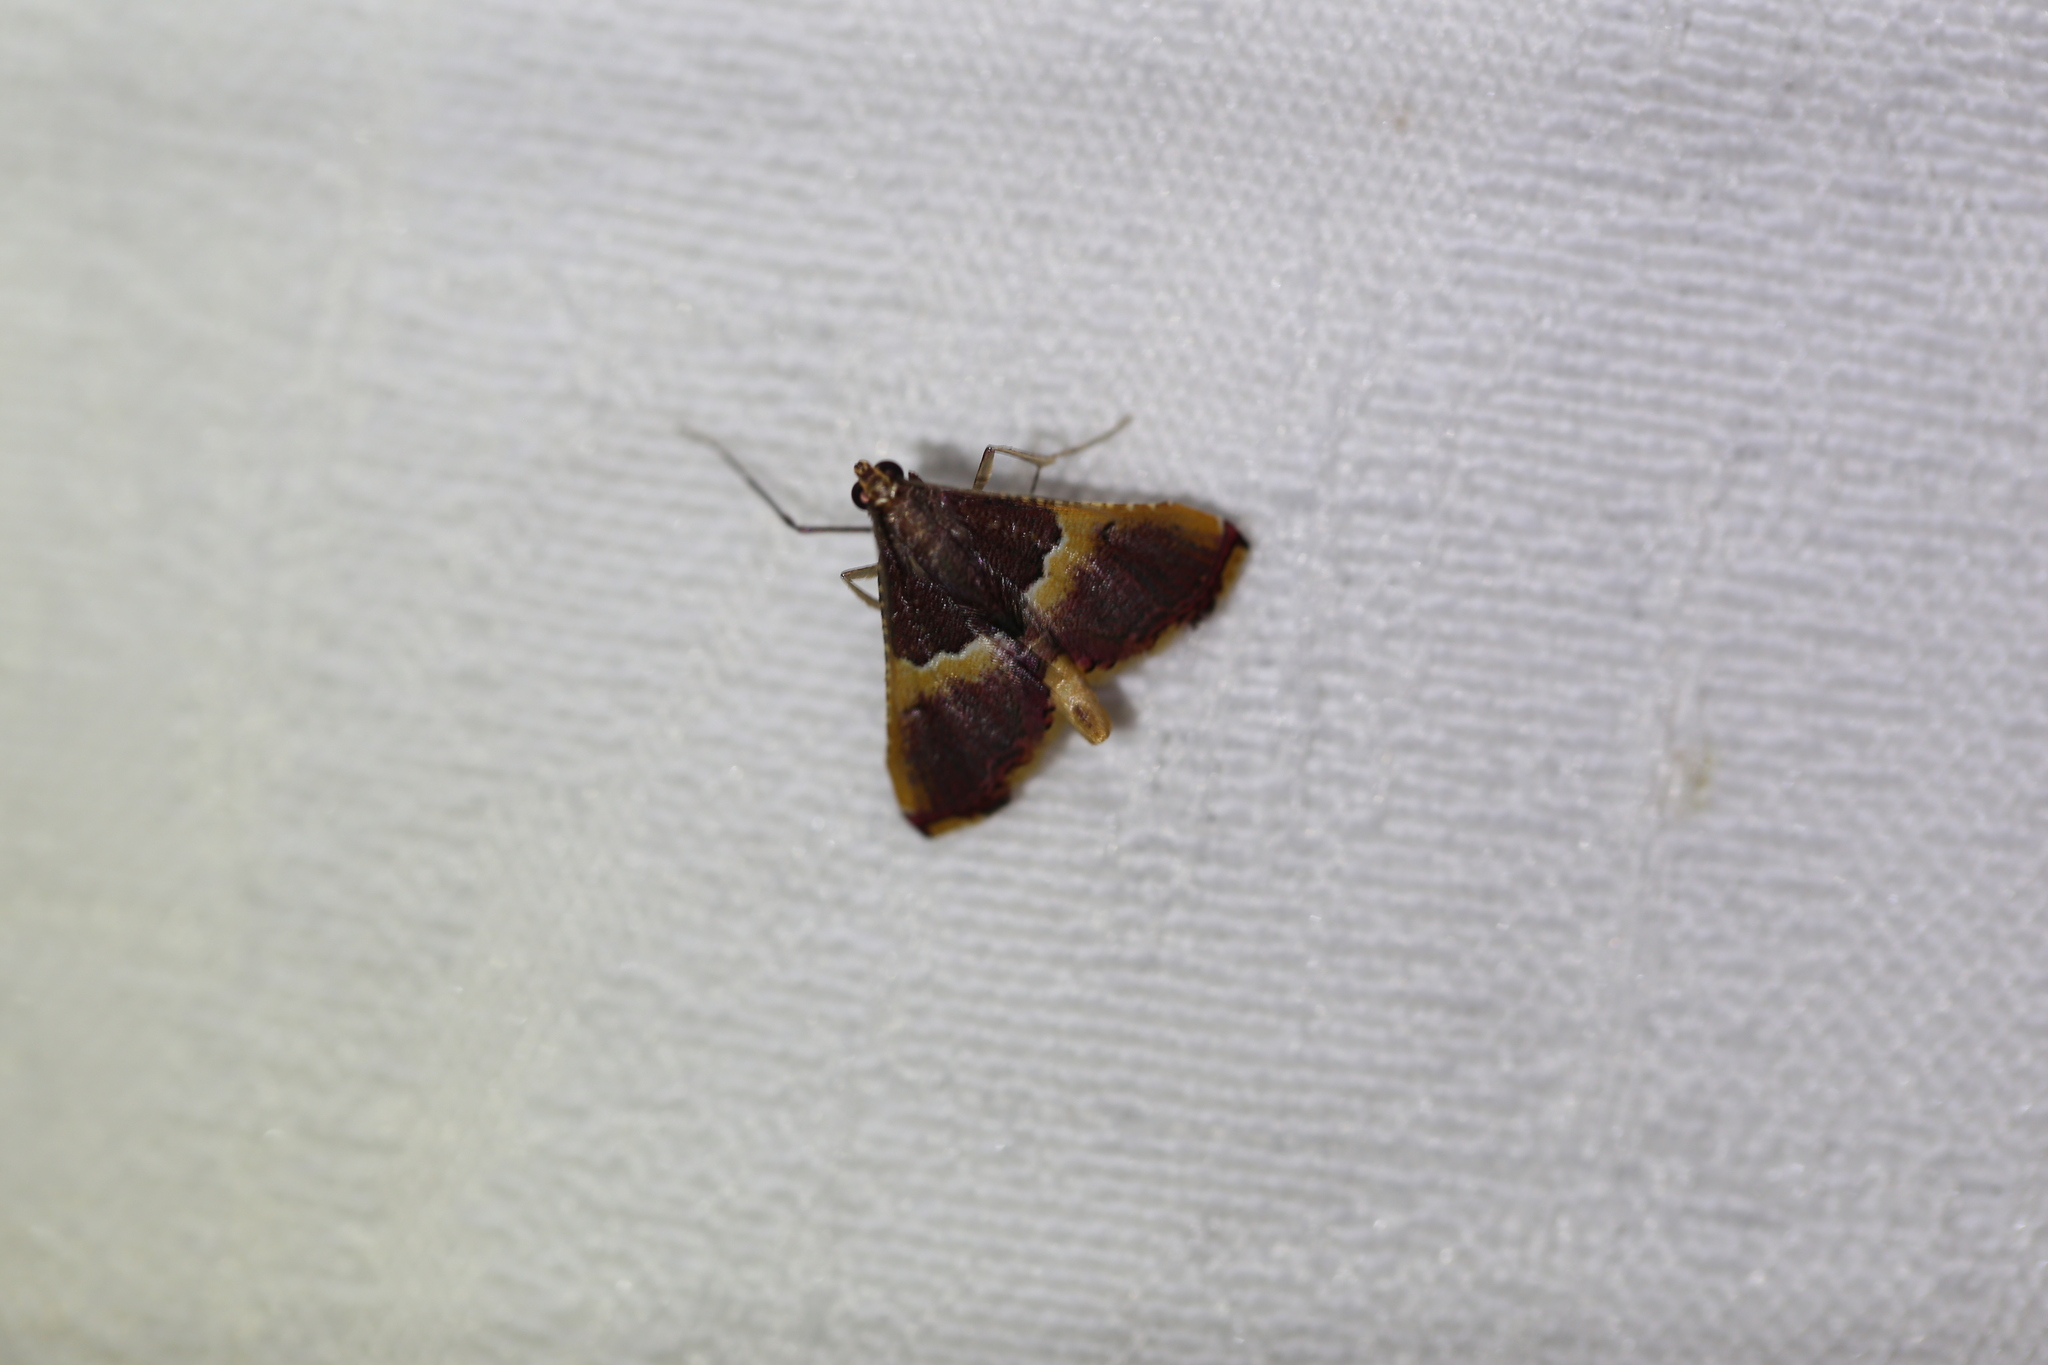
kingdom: Animalia
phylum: Arthropoda
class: Insecta
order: Lepidoptera
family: Pyralidae
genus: Endotricha
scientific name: Endotricha mesenterialis
